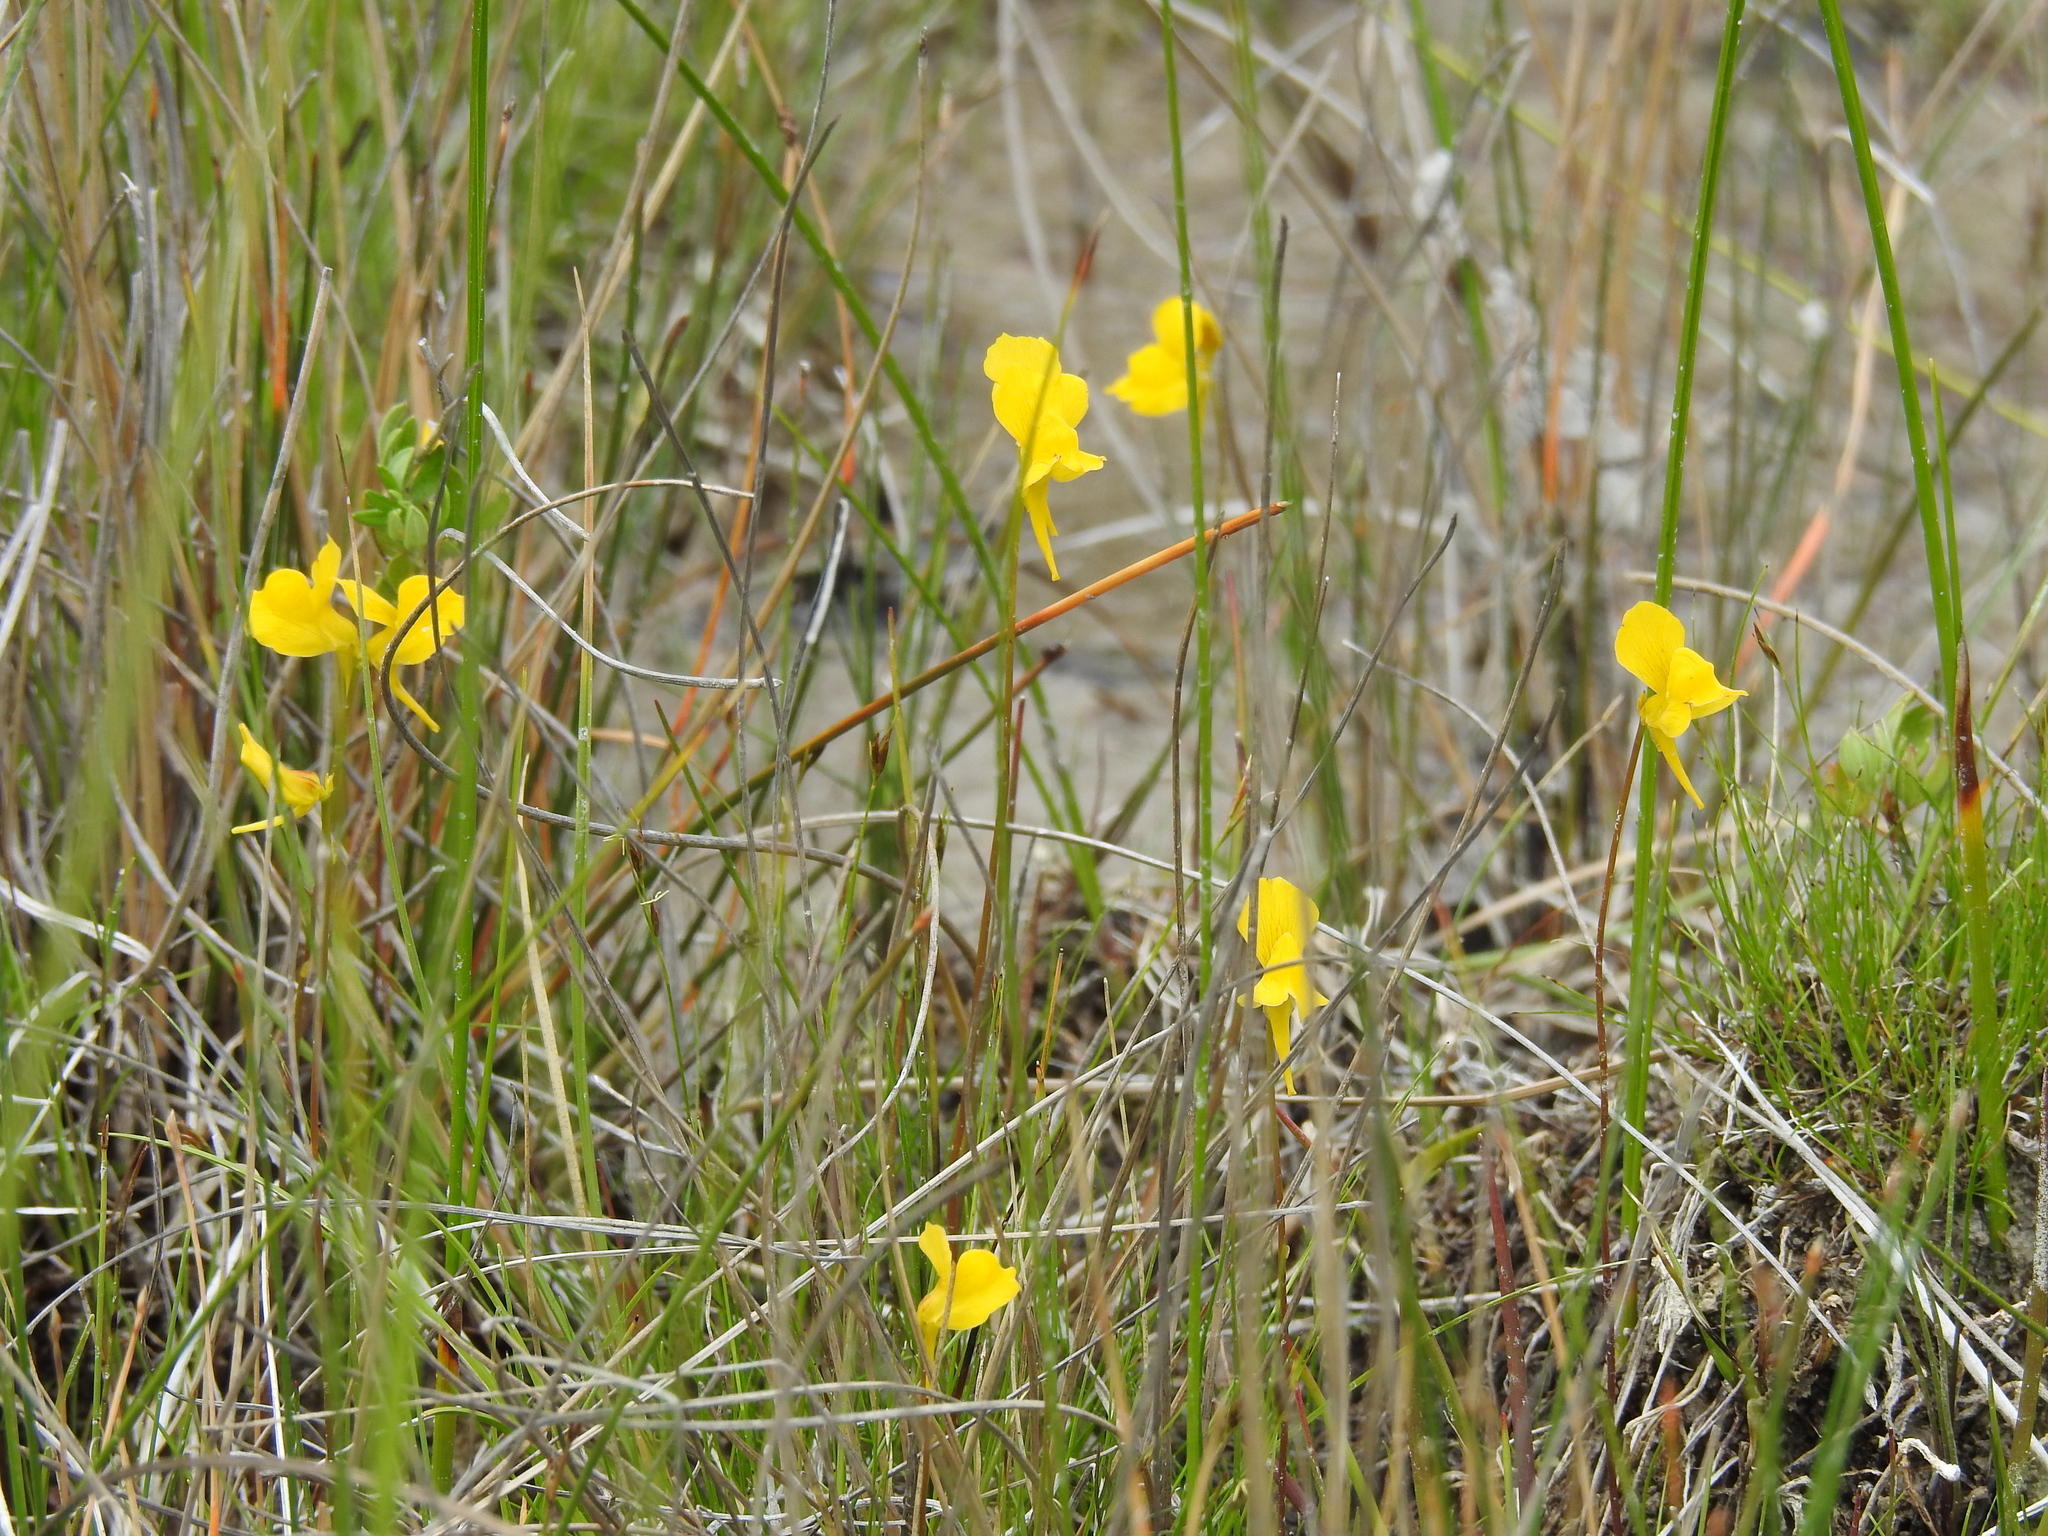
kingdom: Plantae
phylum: Tracheophyta
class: Magnoliopsida
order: Lamiales
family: Lentibulariaceae
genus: Utricularia
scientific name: Utricularia cornuta
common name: Horned bladderwort
